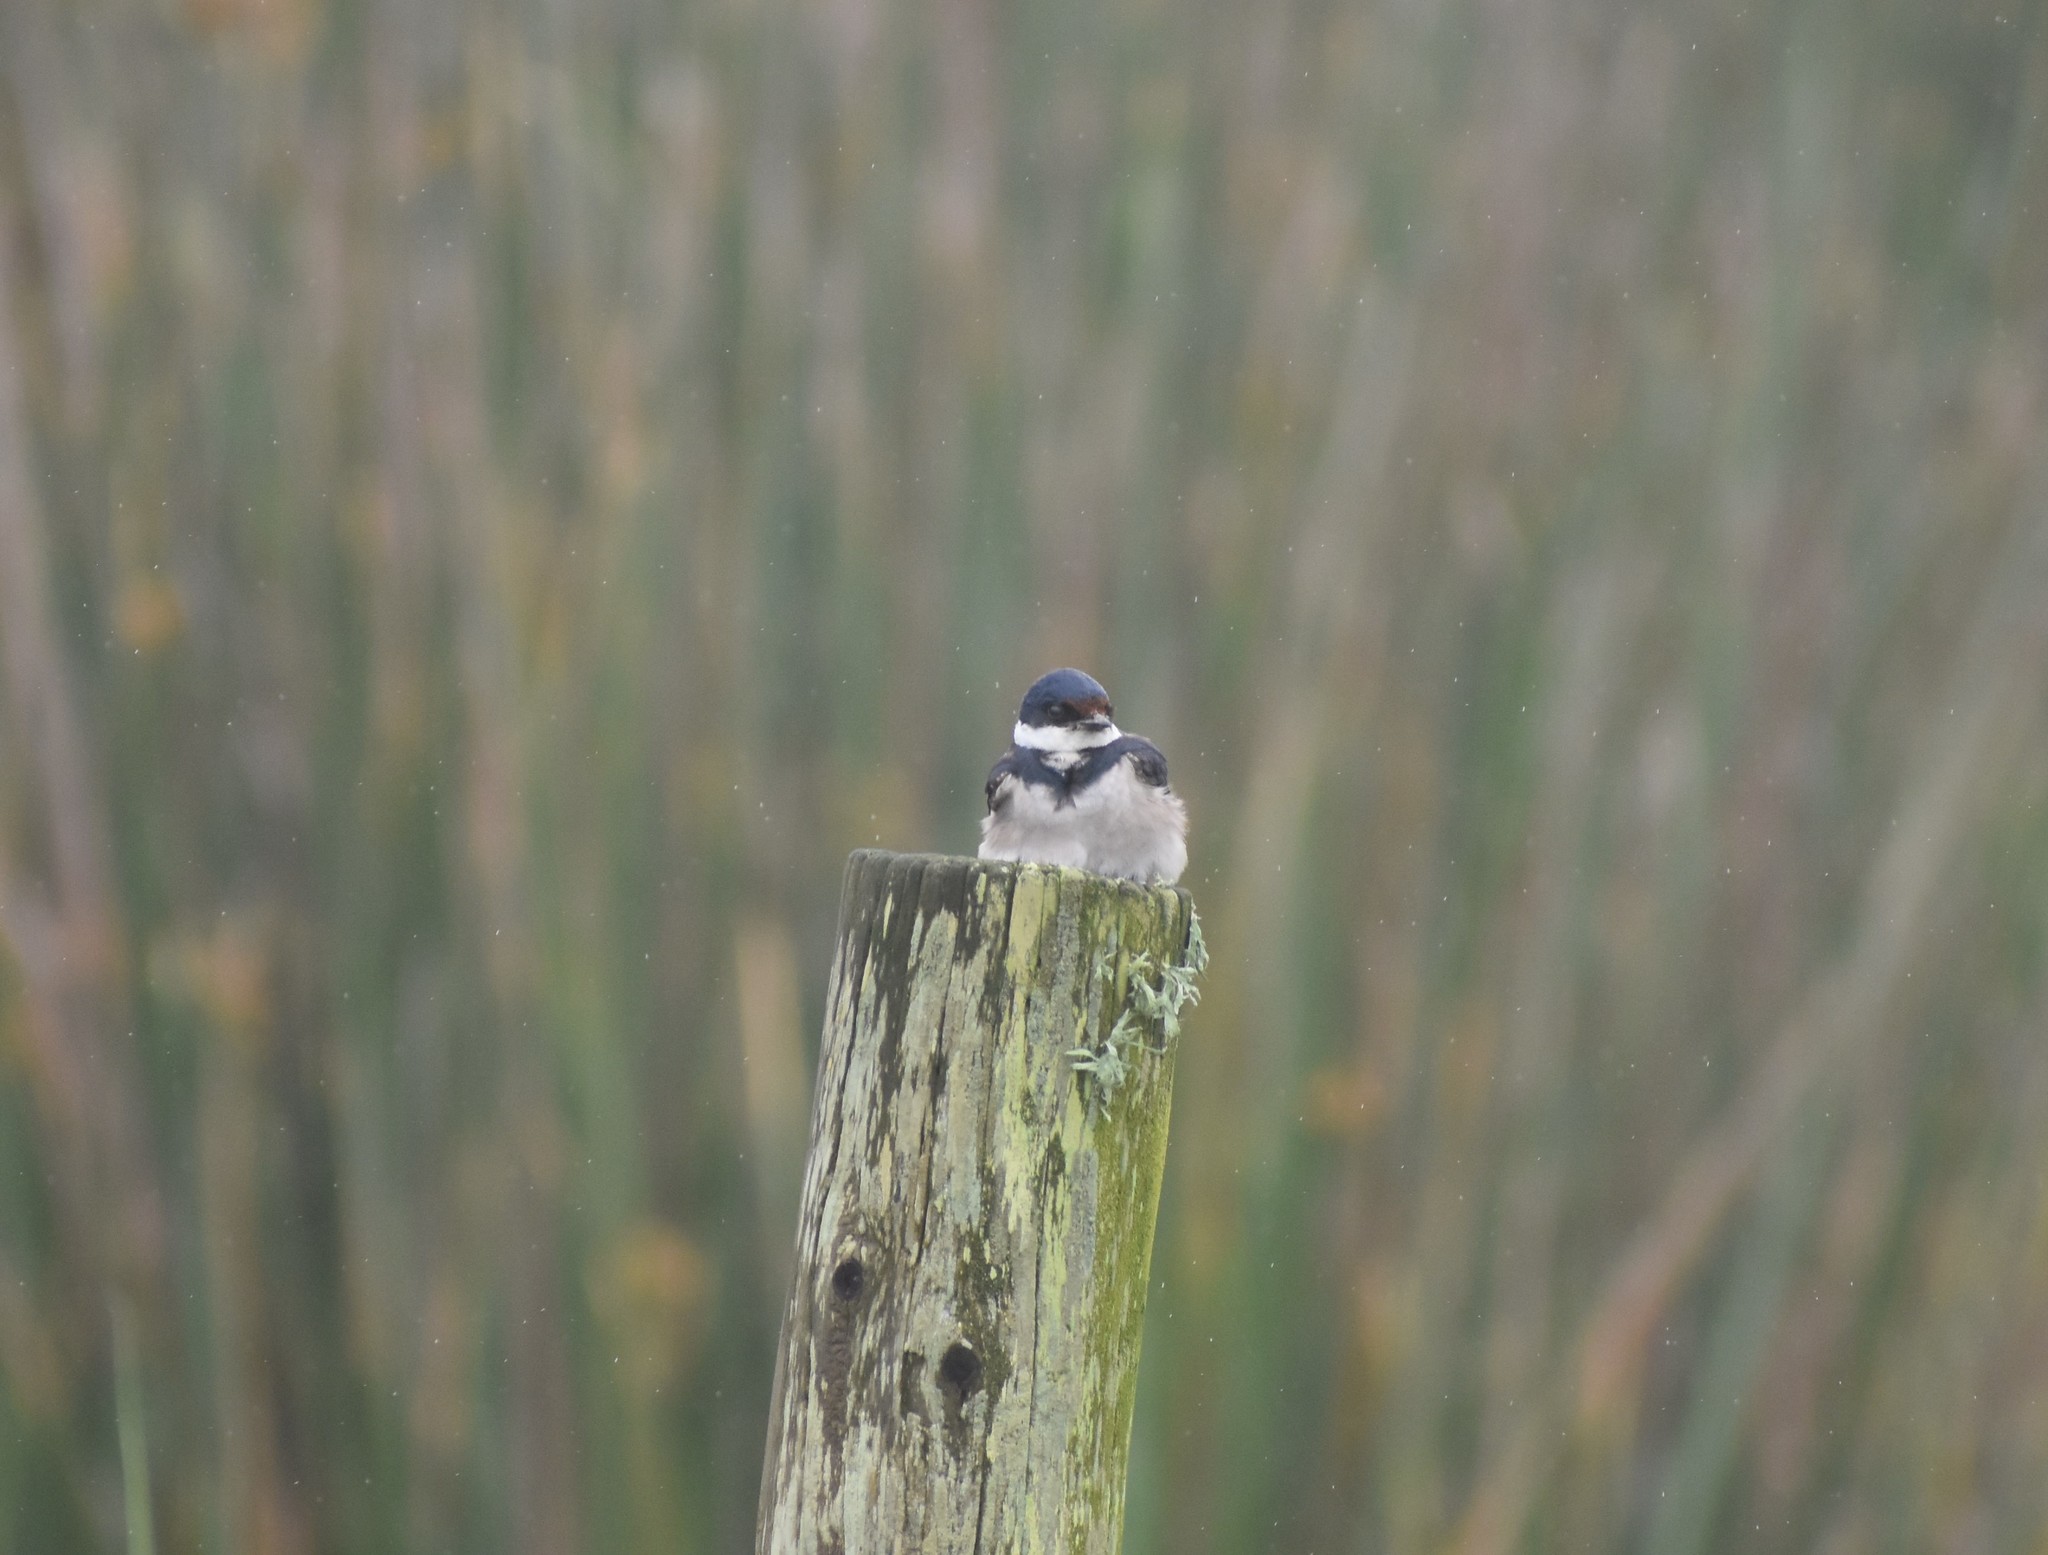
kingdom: Animalia
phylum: Chordata
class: Aves
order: Passeriformes
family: Hirundinidae
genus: Hirundo
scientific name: Hirundo albigularis
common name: White-throated swallow
